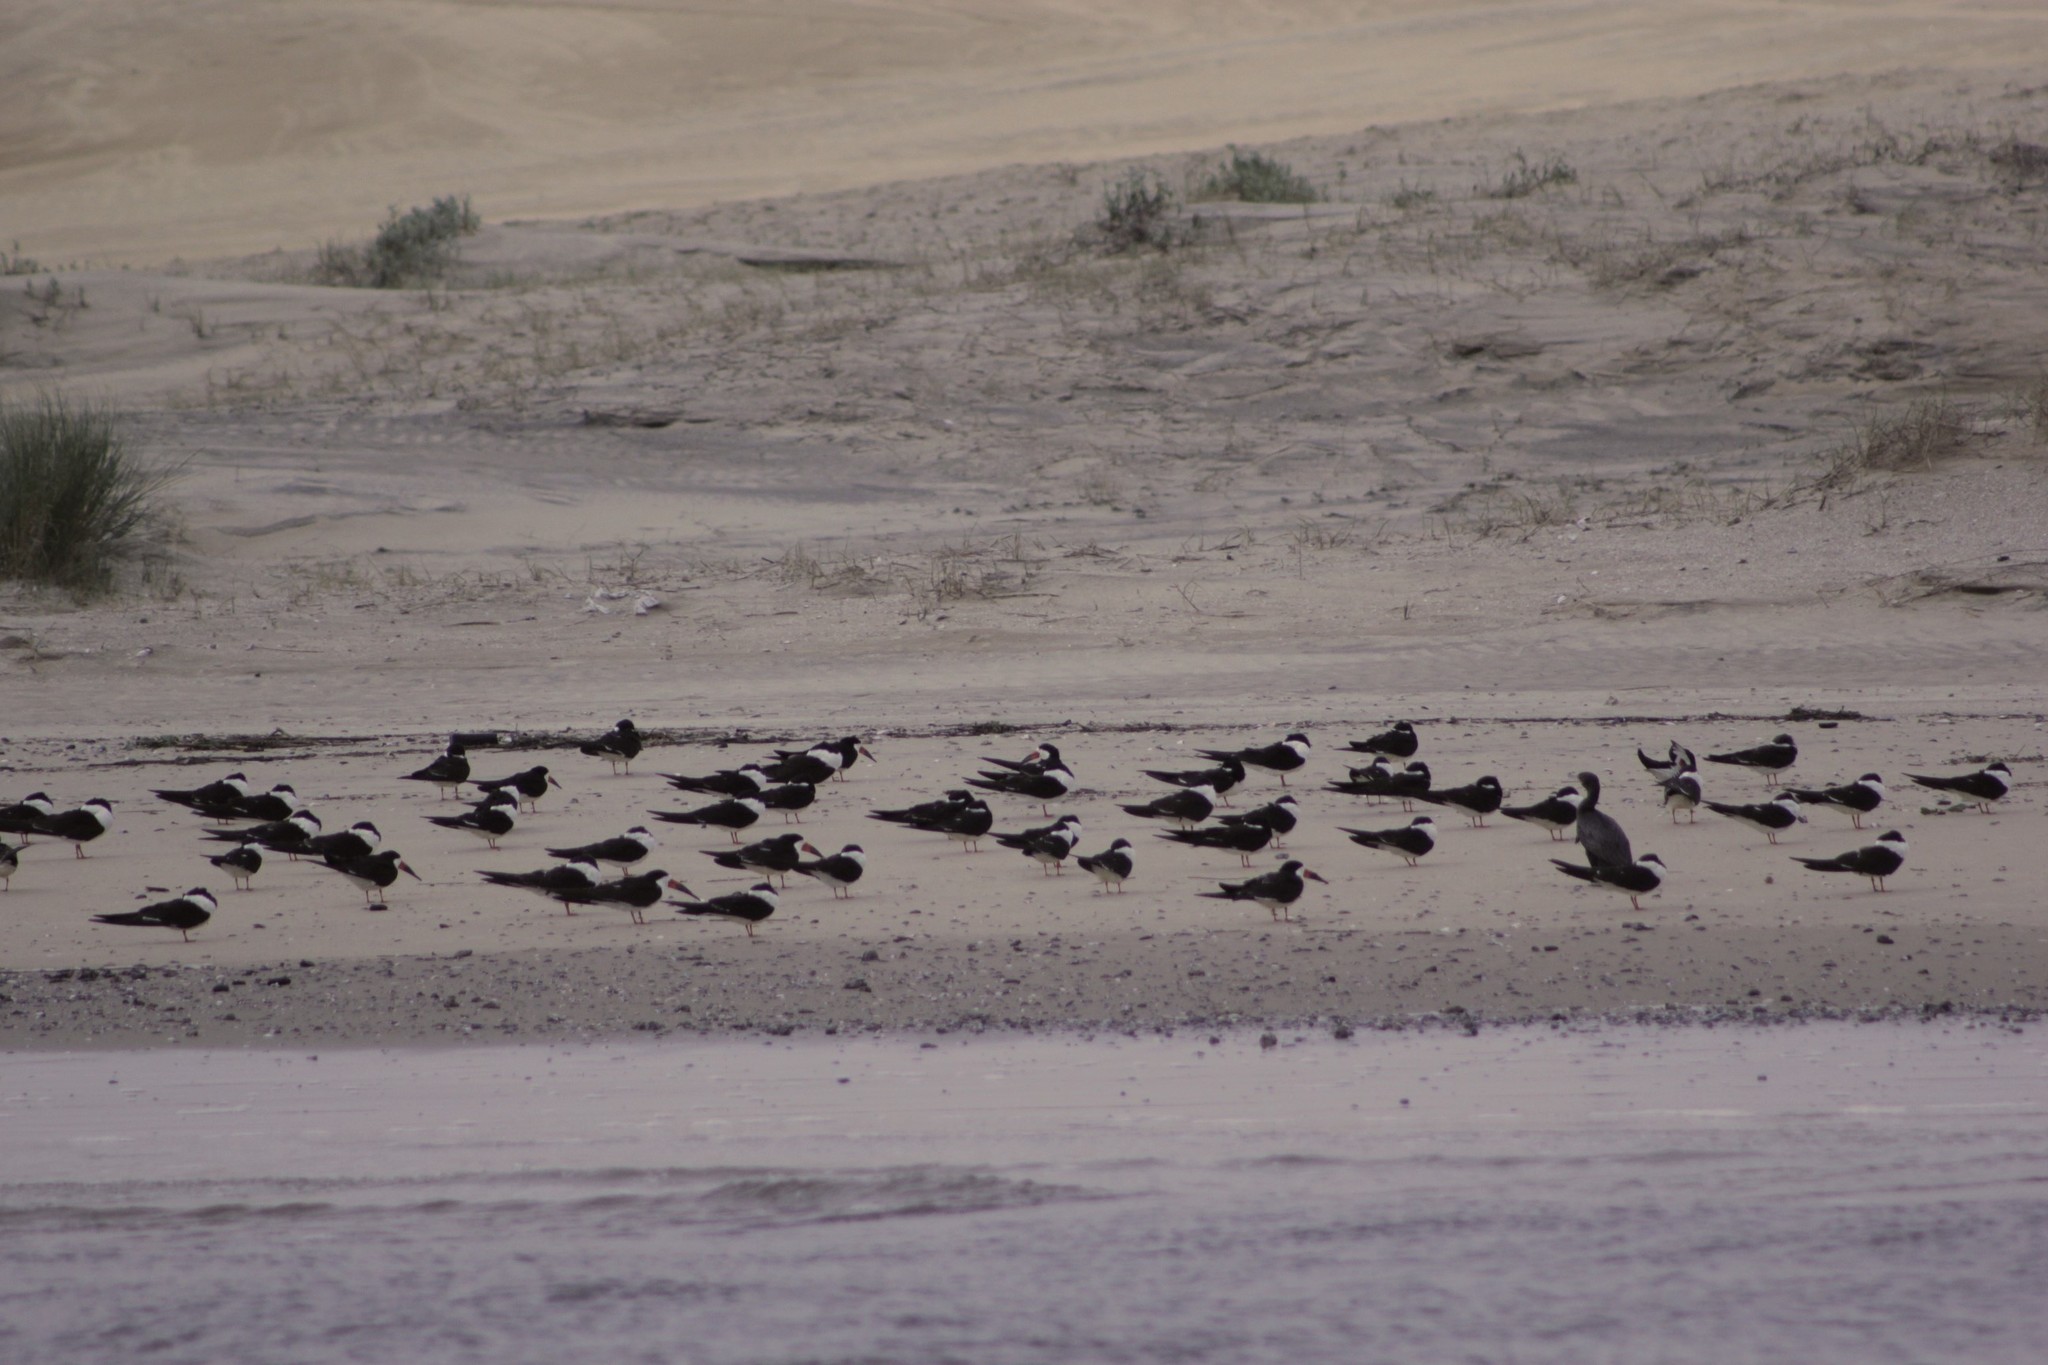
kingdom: Animalia
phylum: Chordata
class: Aves
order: Charadriiformes
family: Laridae
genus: Rynchops
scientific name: Rynchops niger
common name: Black skimmer
